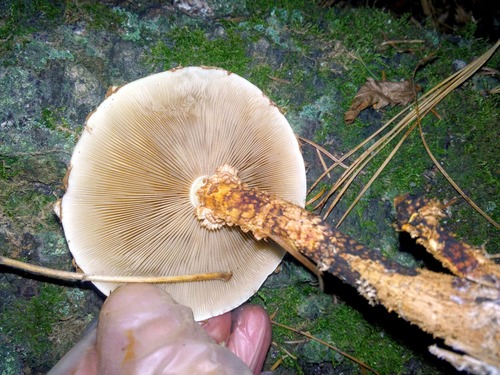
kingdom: Fungi
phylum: Basidiomycota
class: Agaricomycetes
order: Agaricales
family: Strophariaceae
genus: Pholiota
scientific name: Pholiota squarrosoides
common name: Sharp-scaly pholiota
